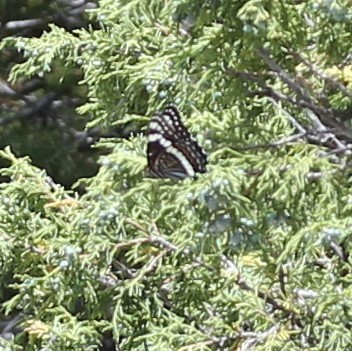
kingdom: Animalia
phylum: Arthropoda
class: Insecta
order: Lepidoptera
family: Nymphalidae
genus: Limenitis
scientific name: Limenitis weidemeyerii
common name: Weidemeyer's admiral
